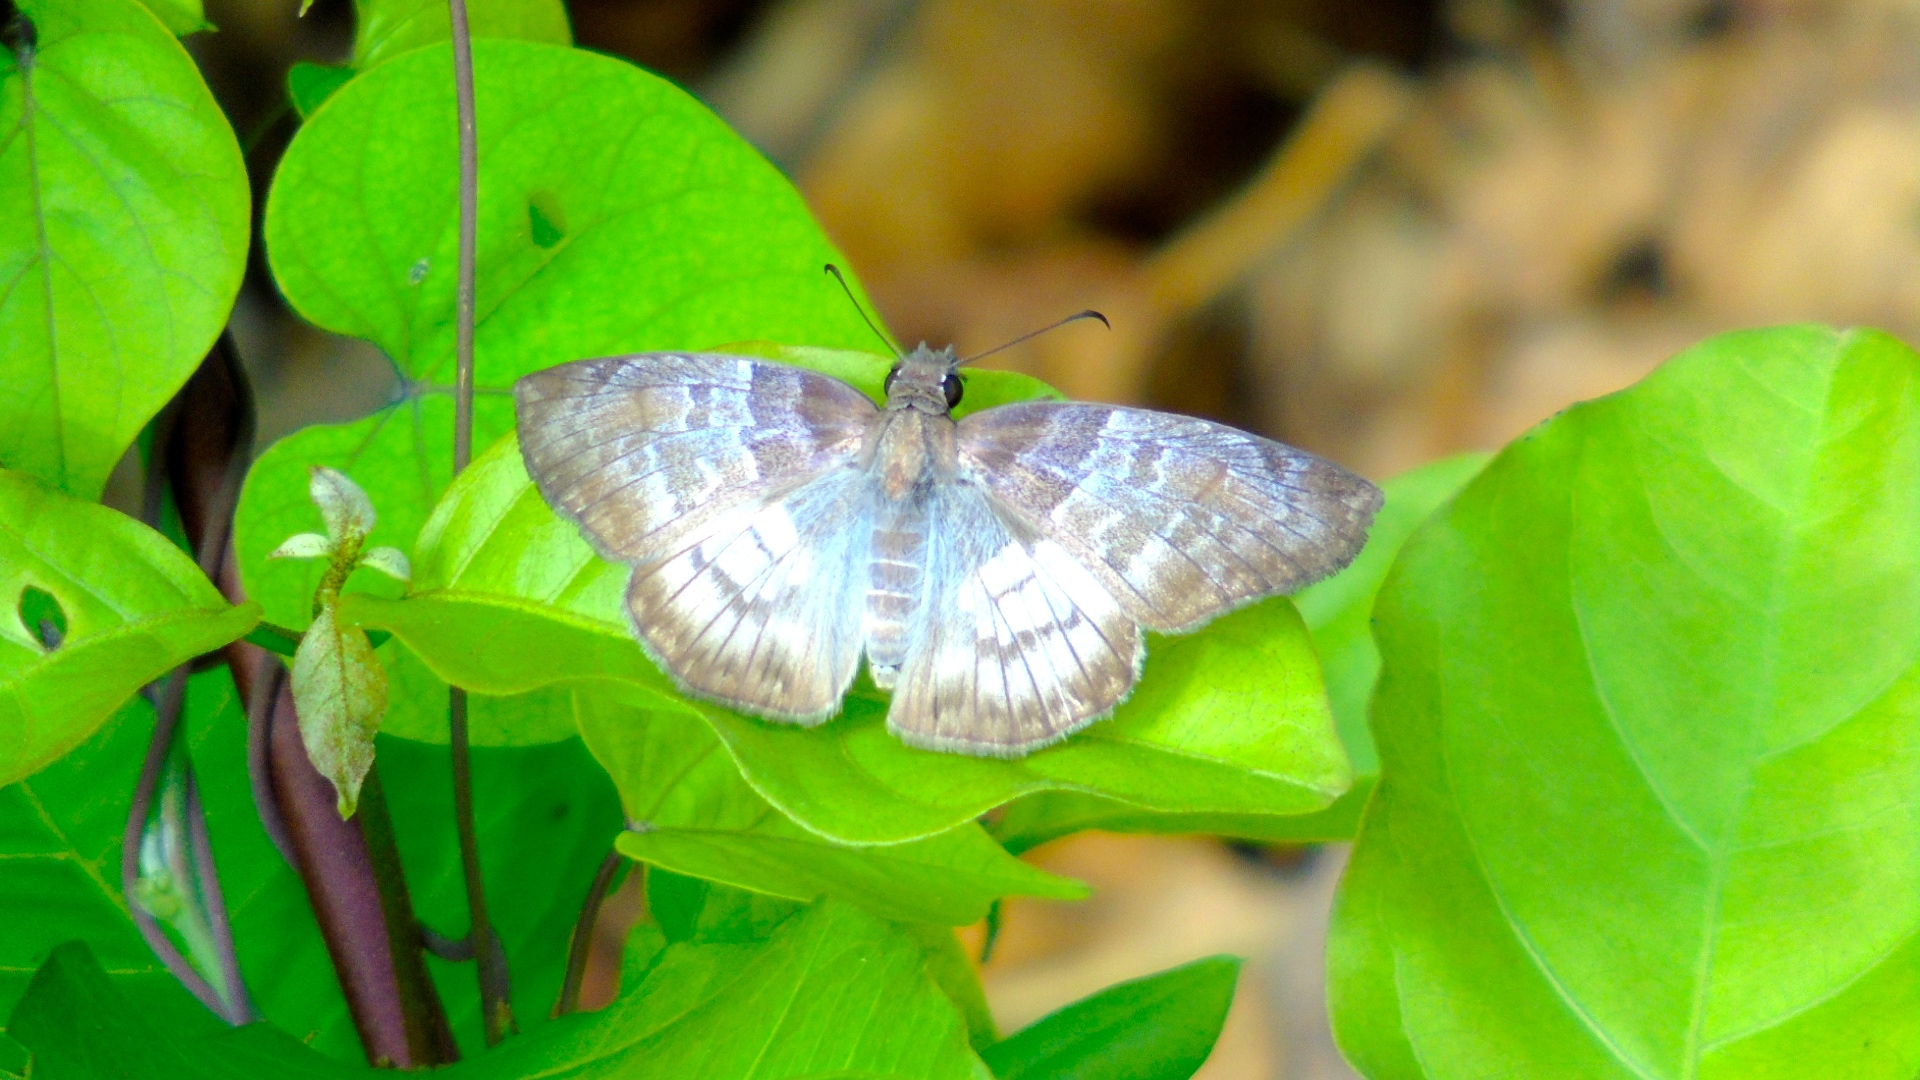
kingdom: Animalia
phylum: Arthropoda
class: Insecta
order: Lepidoptera
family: Hesperiidae
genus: Mylon
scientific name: Mylon pelopidas
